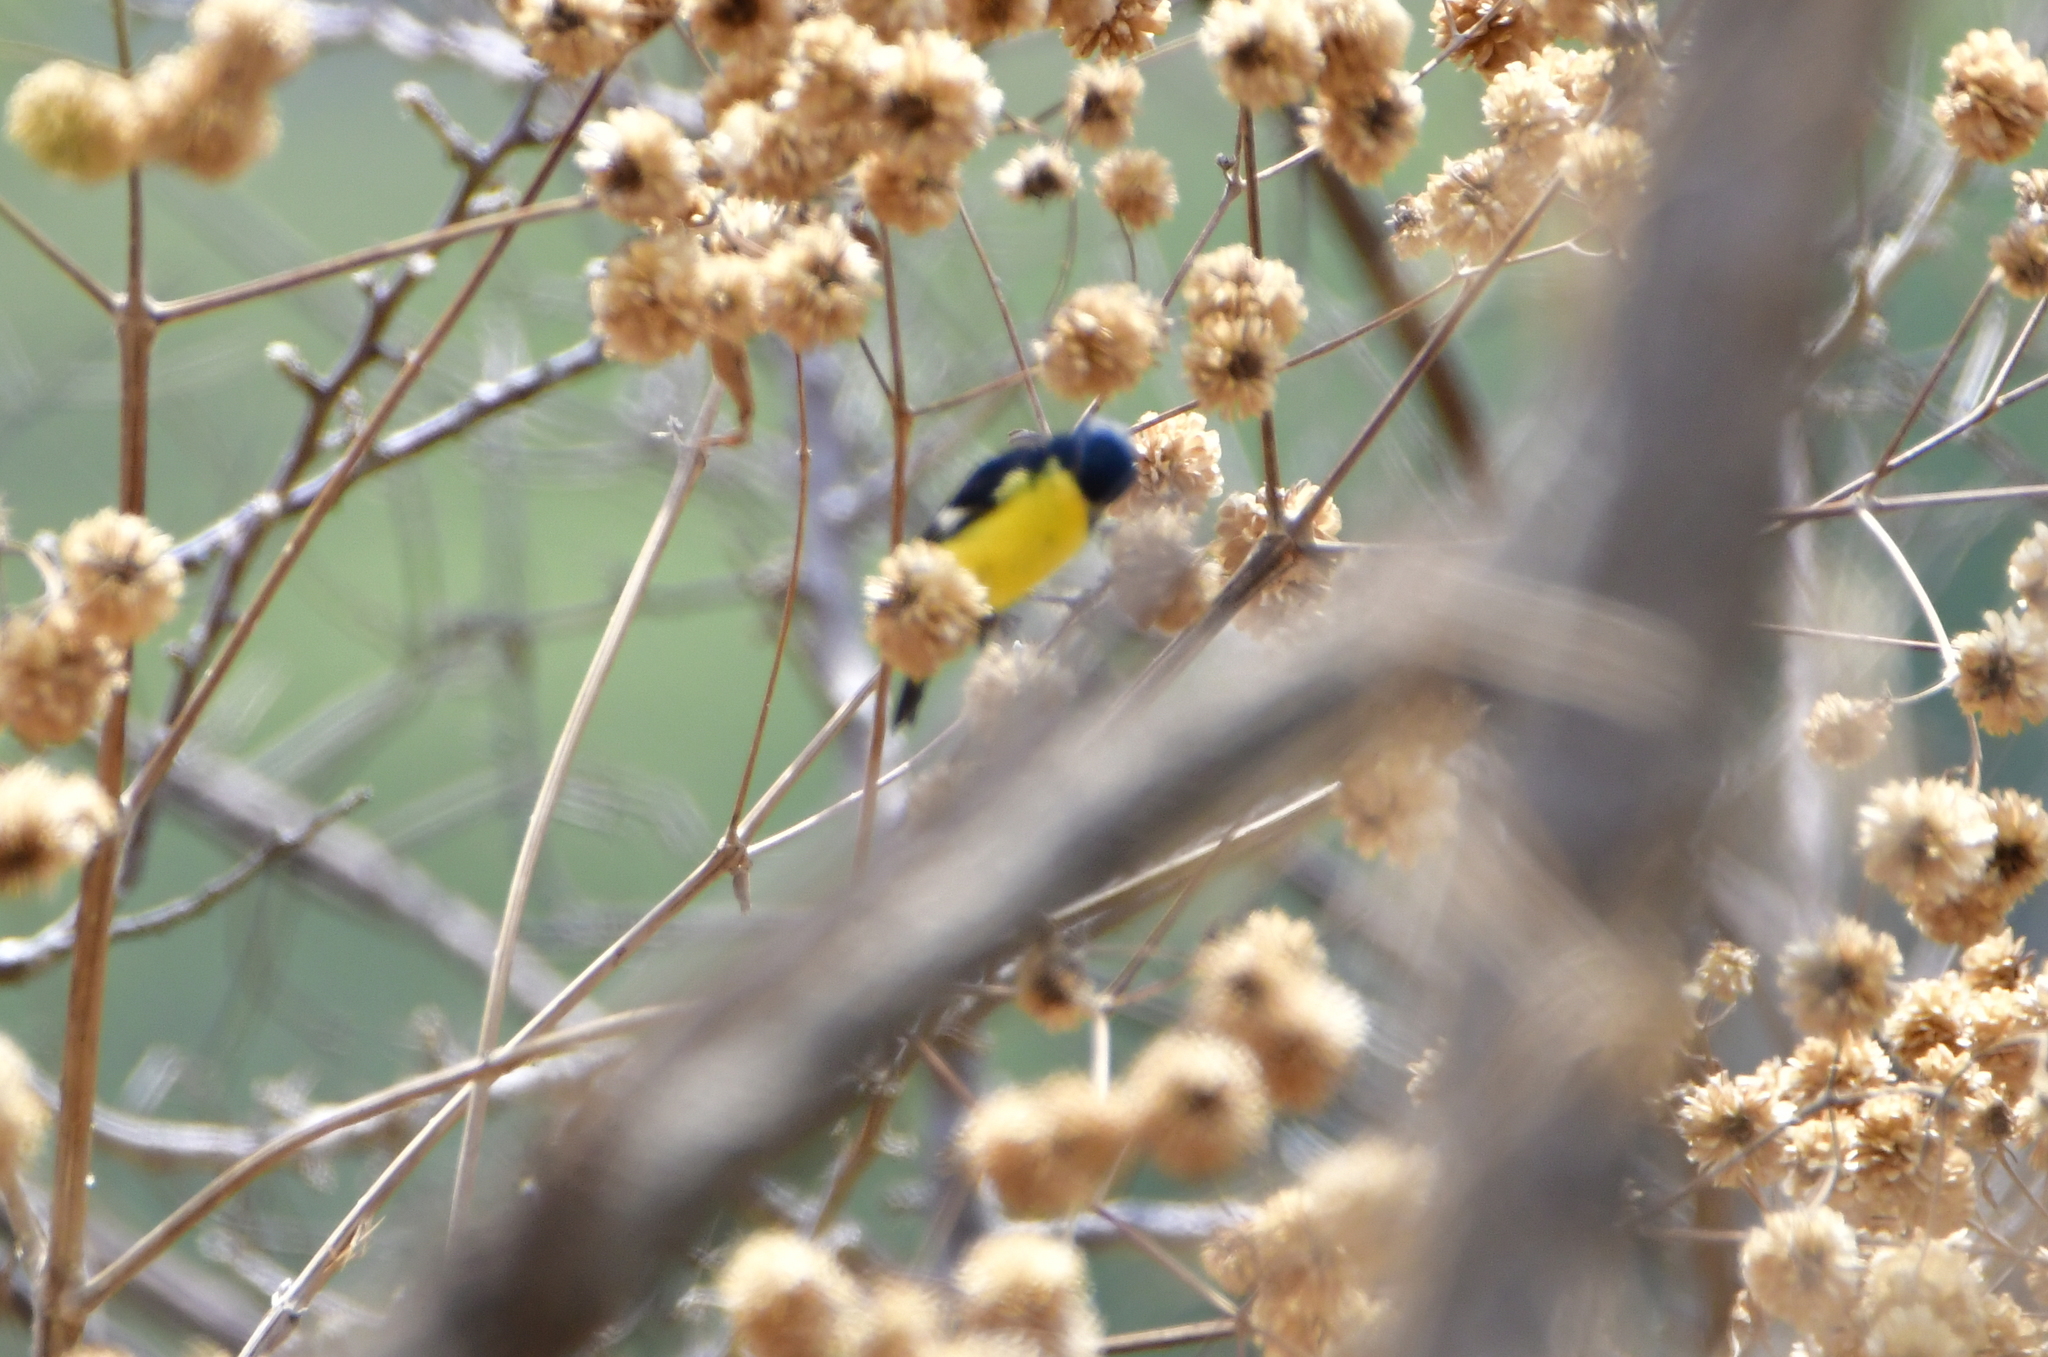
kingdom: Animalia
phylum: Chordata
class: Aves
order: Passeriformes
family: Fringillidae
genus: Spinus
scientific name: Spinus psaltria
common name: Lesser goldfinch
